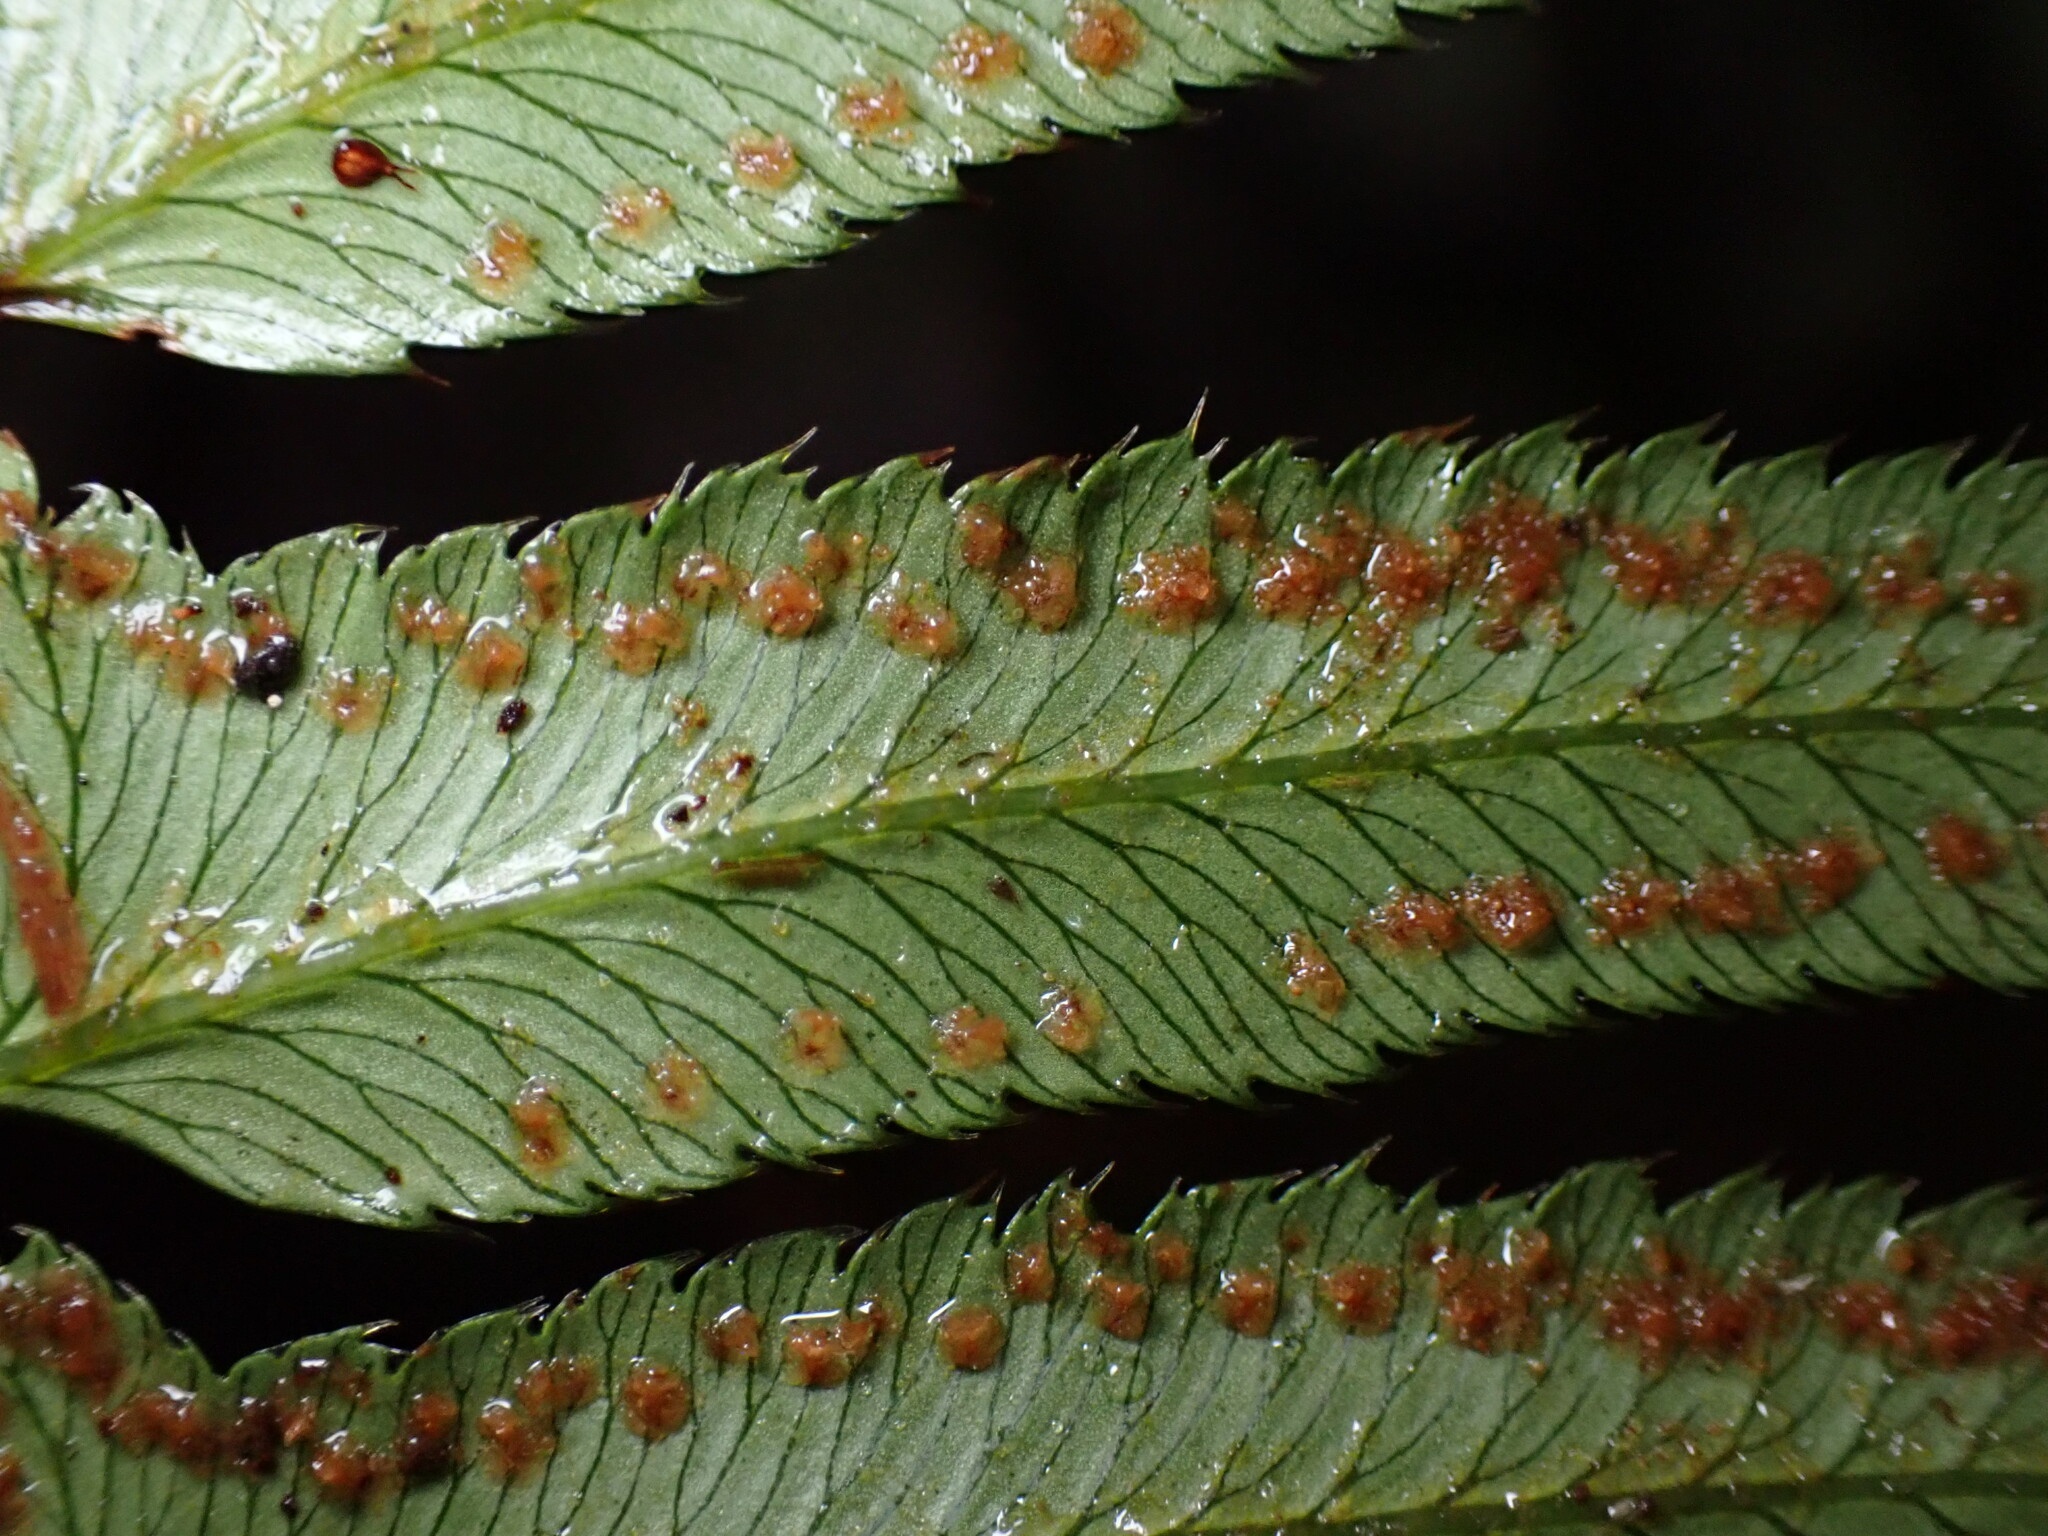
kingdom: Plantae
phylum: Tracheophyta
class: Polypodiopsida
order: Polypodiales
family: Dryopteridaceae
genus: Polystichum
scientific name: Polystichum munitum
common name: Western sword-fern
